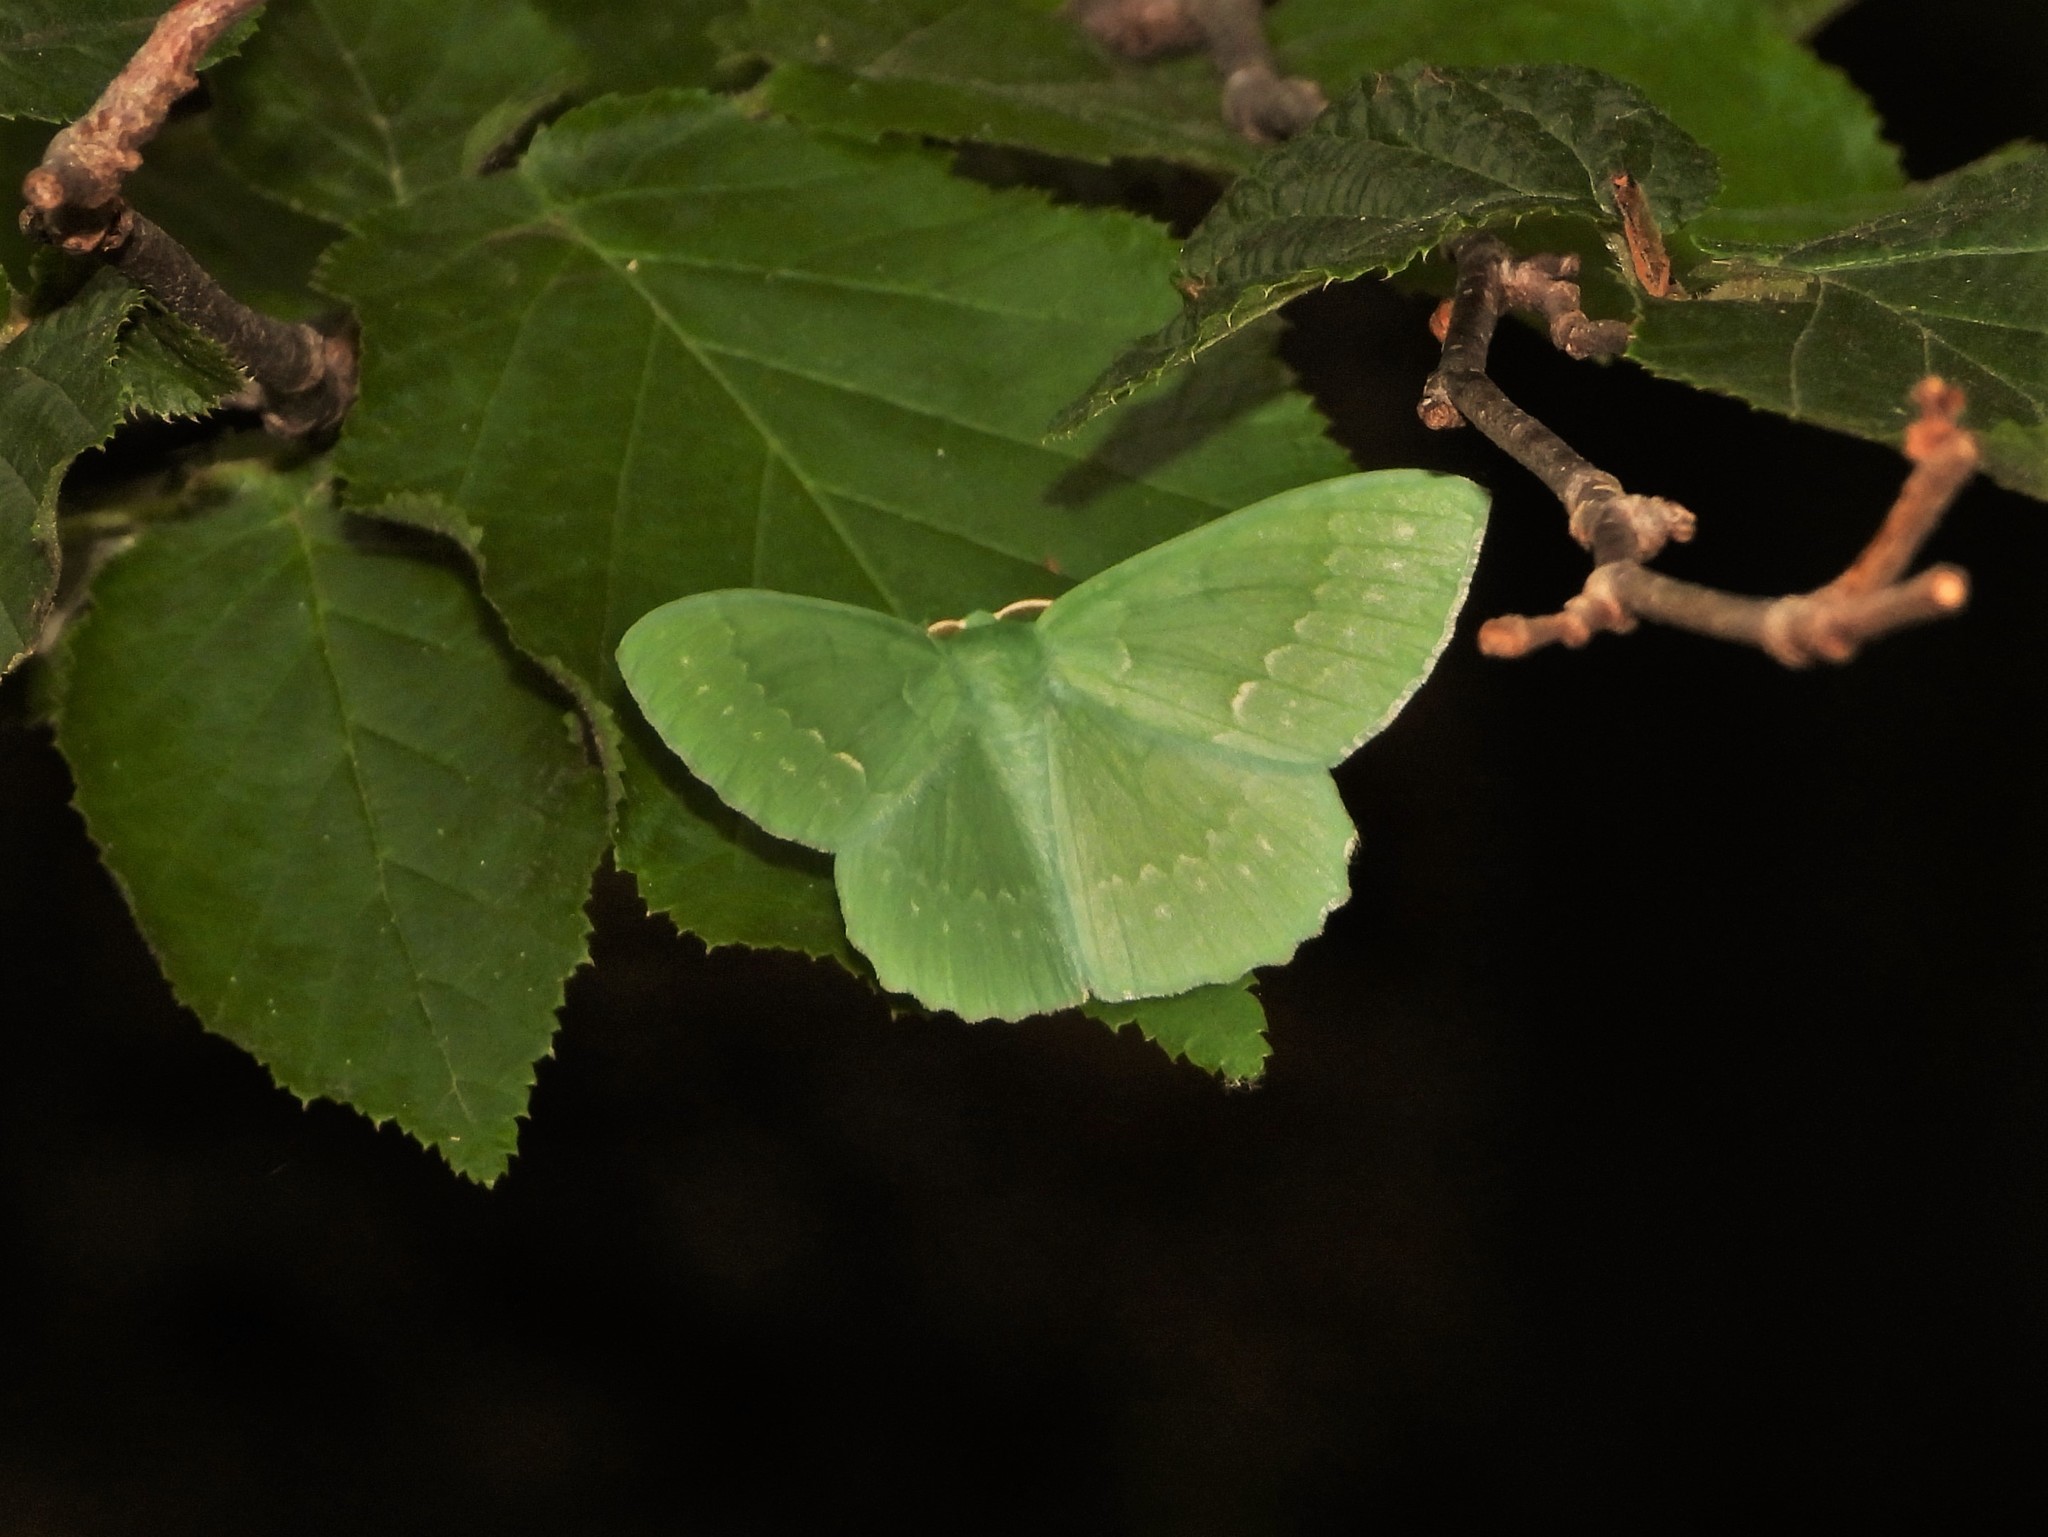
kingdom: Animalia
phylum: Arthropoda
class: Insecta
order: Lepidoptera
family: Geometridae
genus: Geometra
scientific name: Geometra papilionaria
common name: Large emerald
